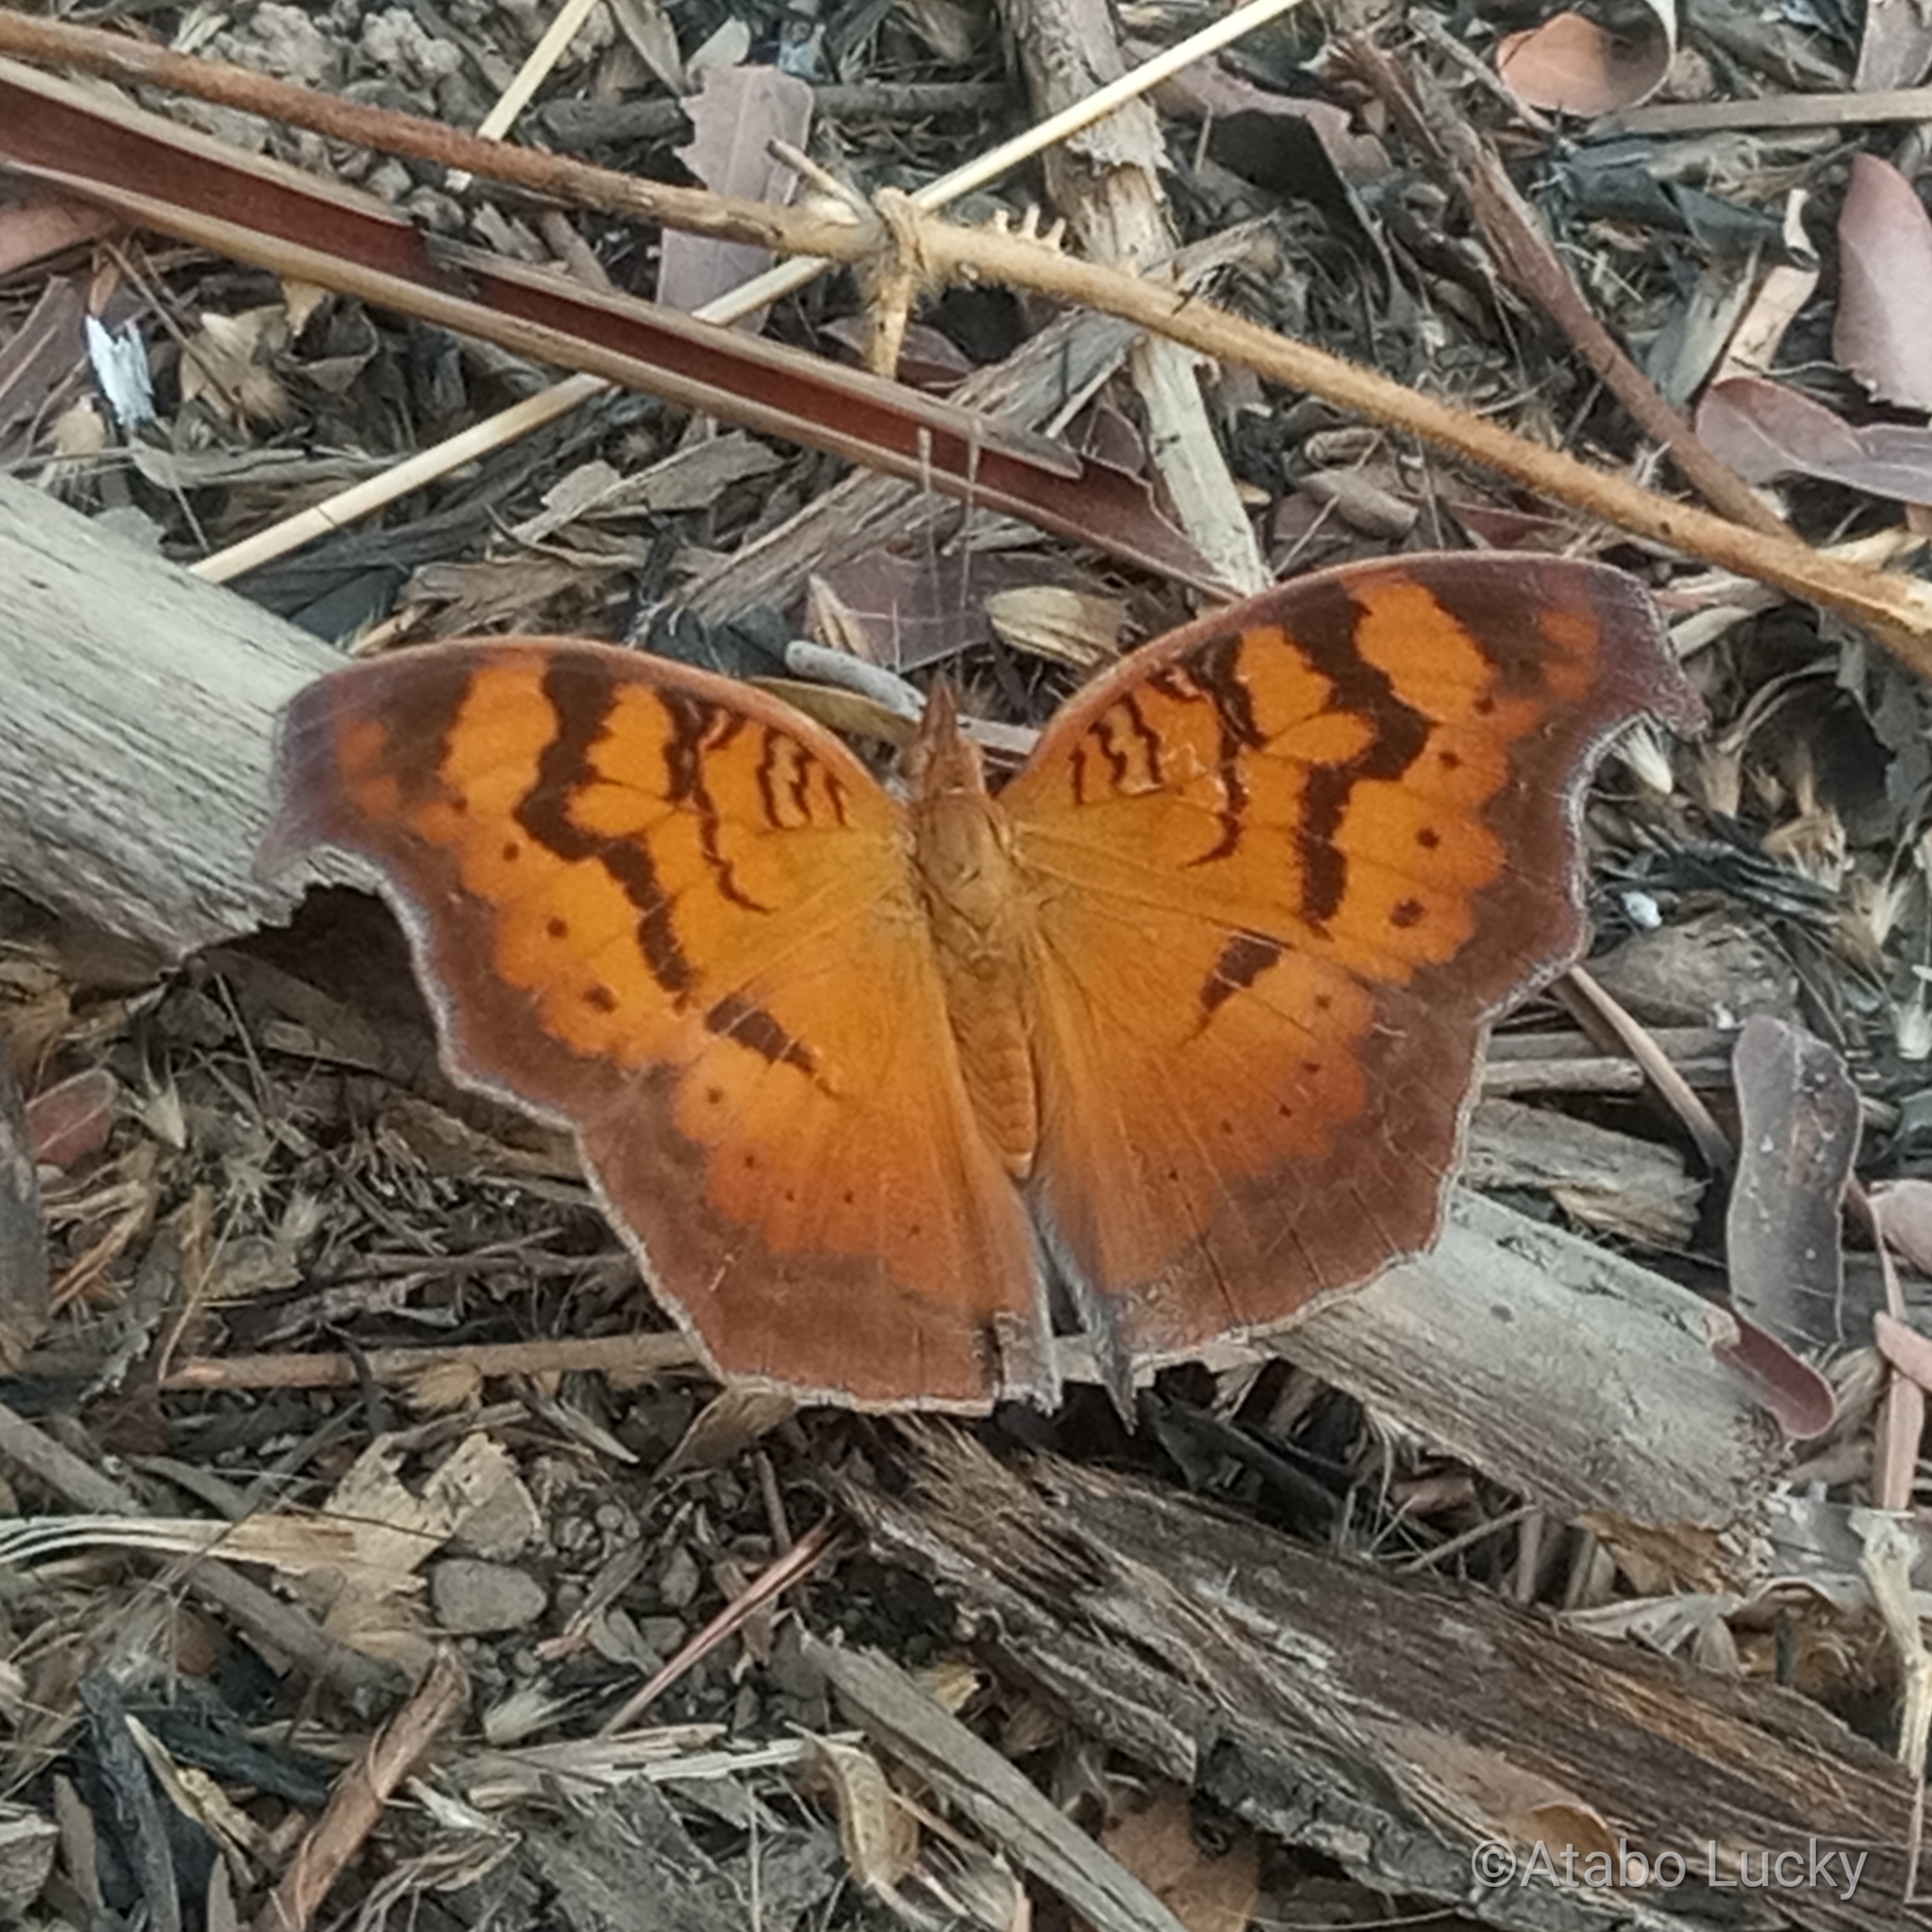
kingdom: Animalia
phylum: Arthropoda
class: Insecta
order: Lepidoptera
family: Nymphalidae
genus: Junonia
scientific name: Junonia antilope
